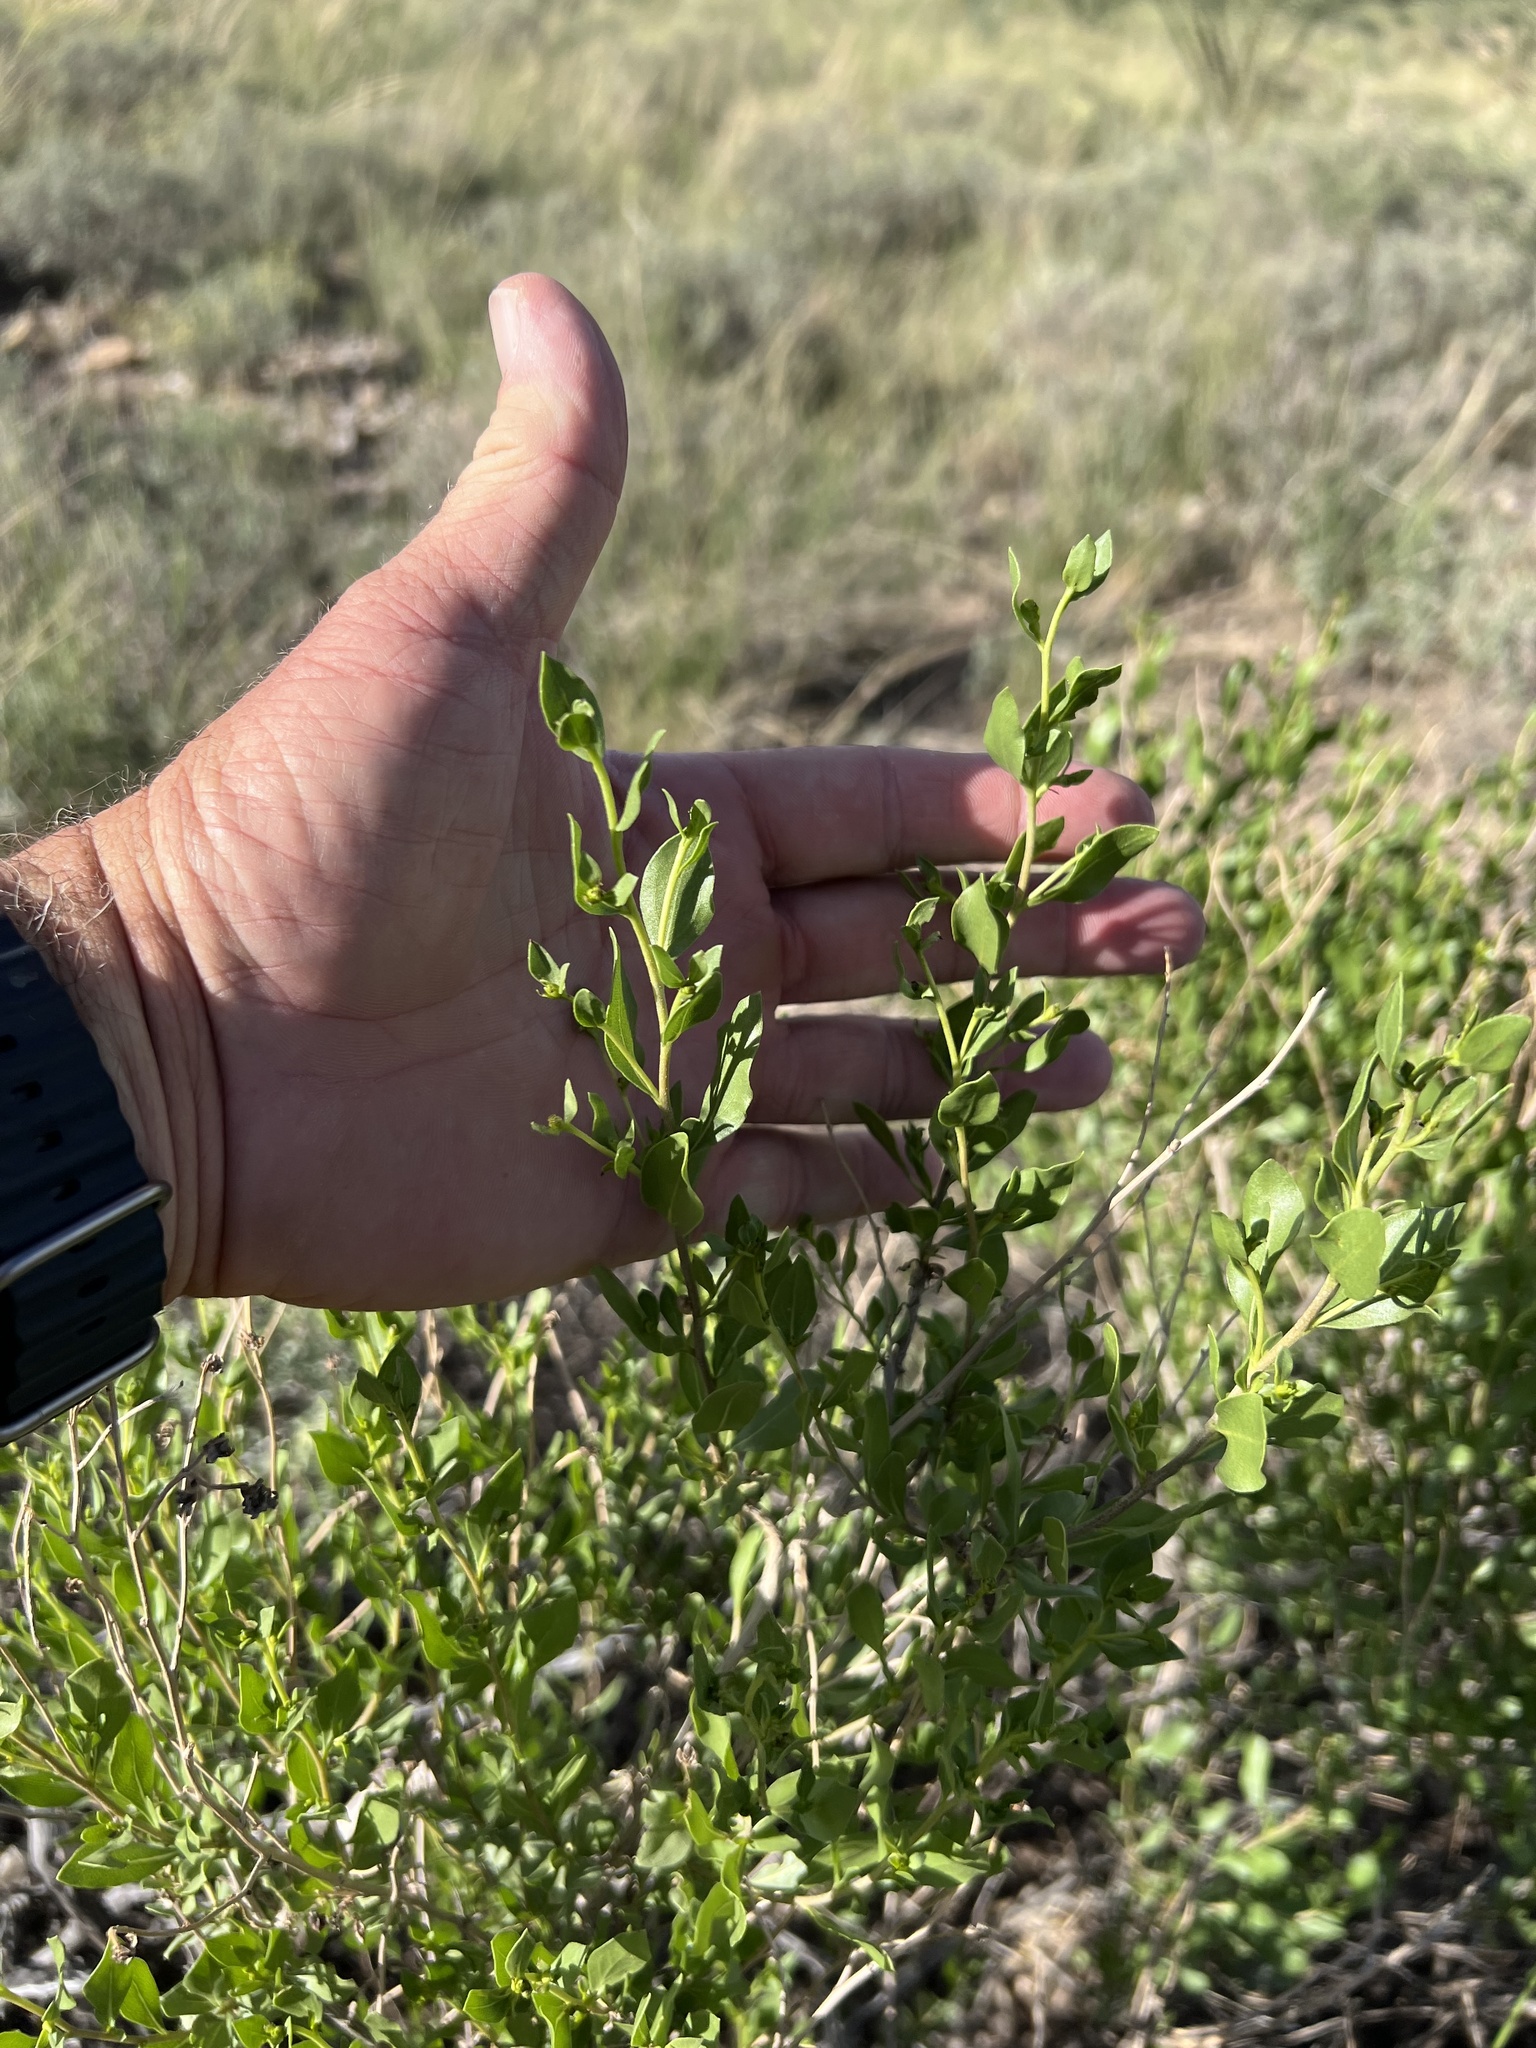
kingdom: Plantae
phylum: Tracheophyta
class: Magnoliopsida
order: Asterales
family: Asteraceae
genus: Flourensia
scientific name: Flourensia cernua
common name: Varnishbush
